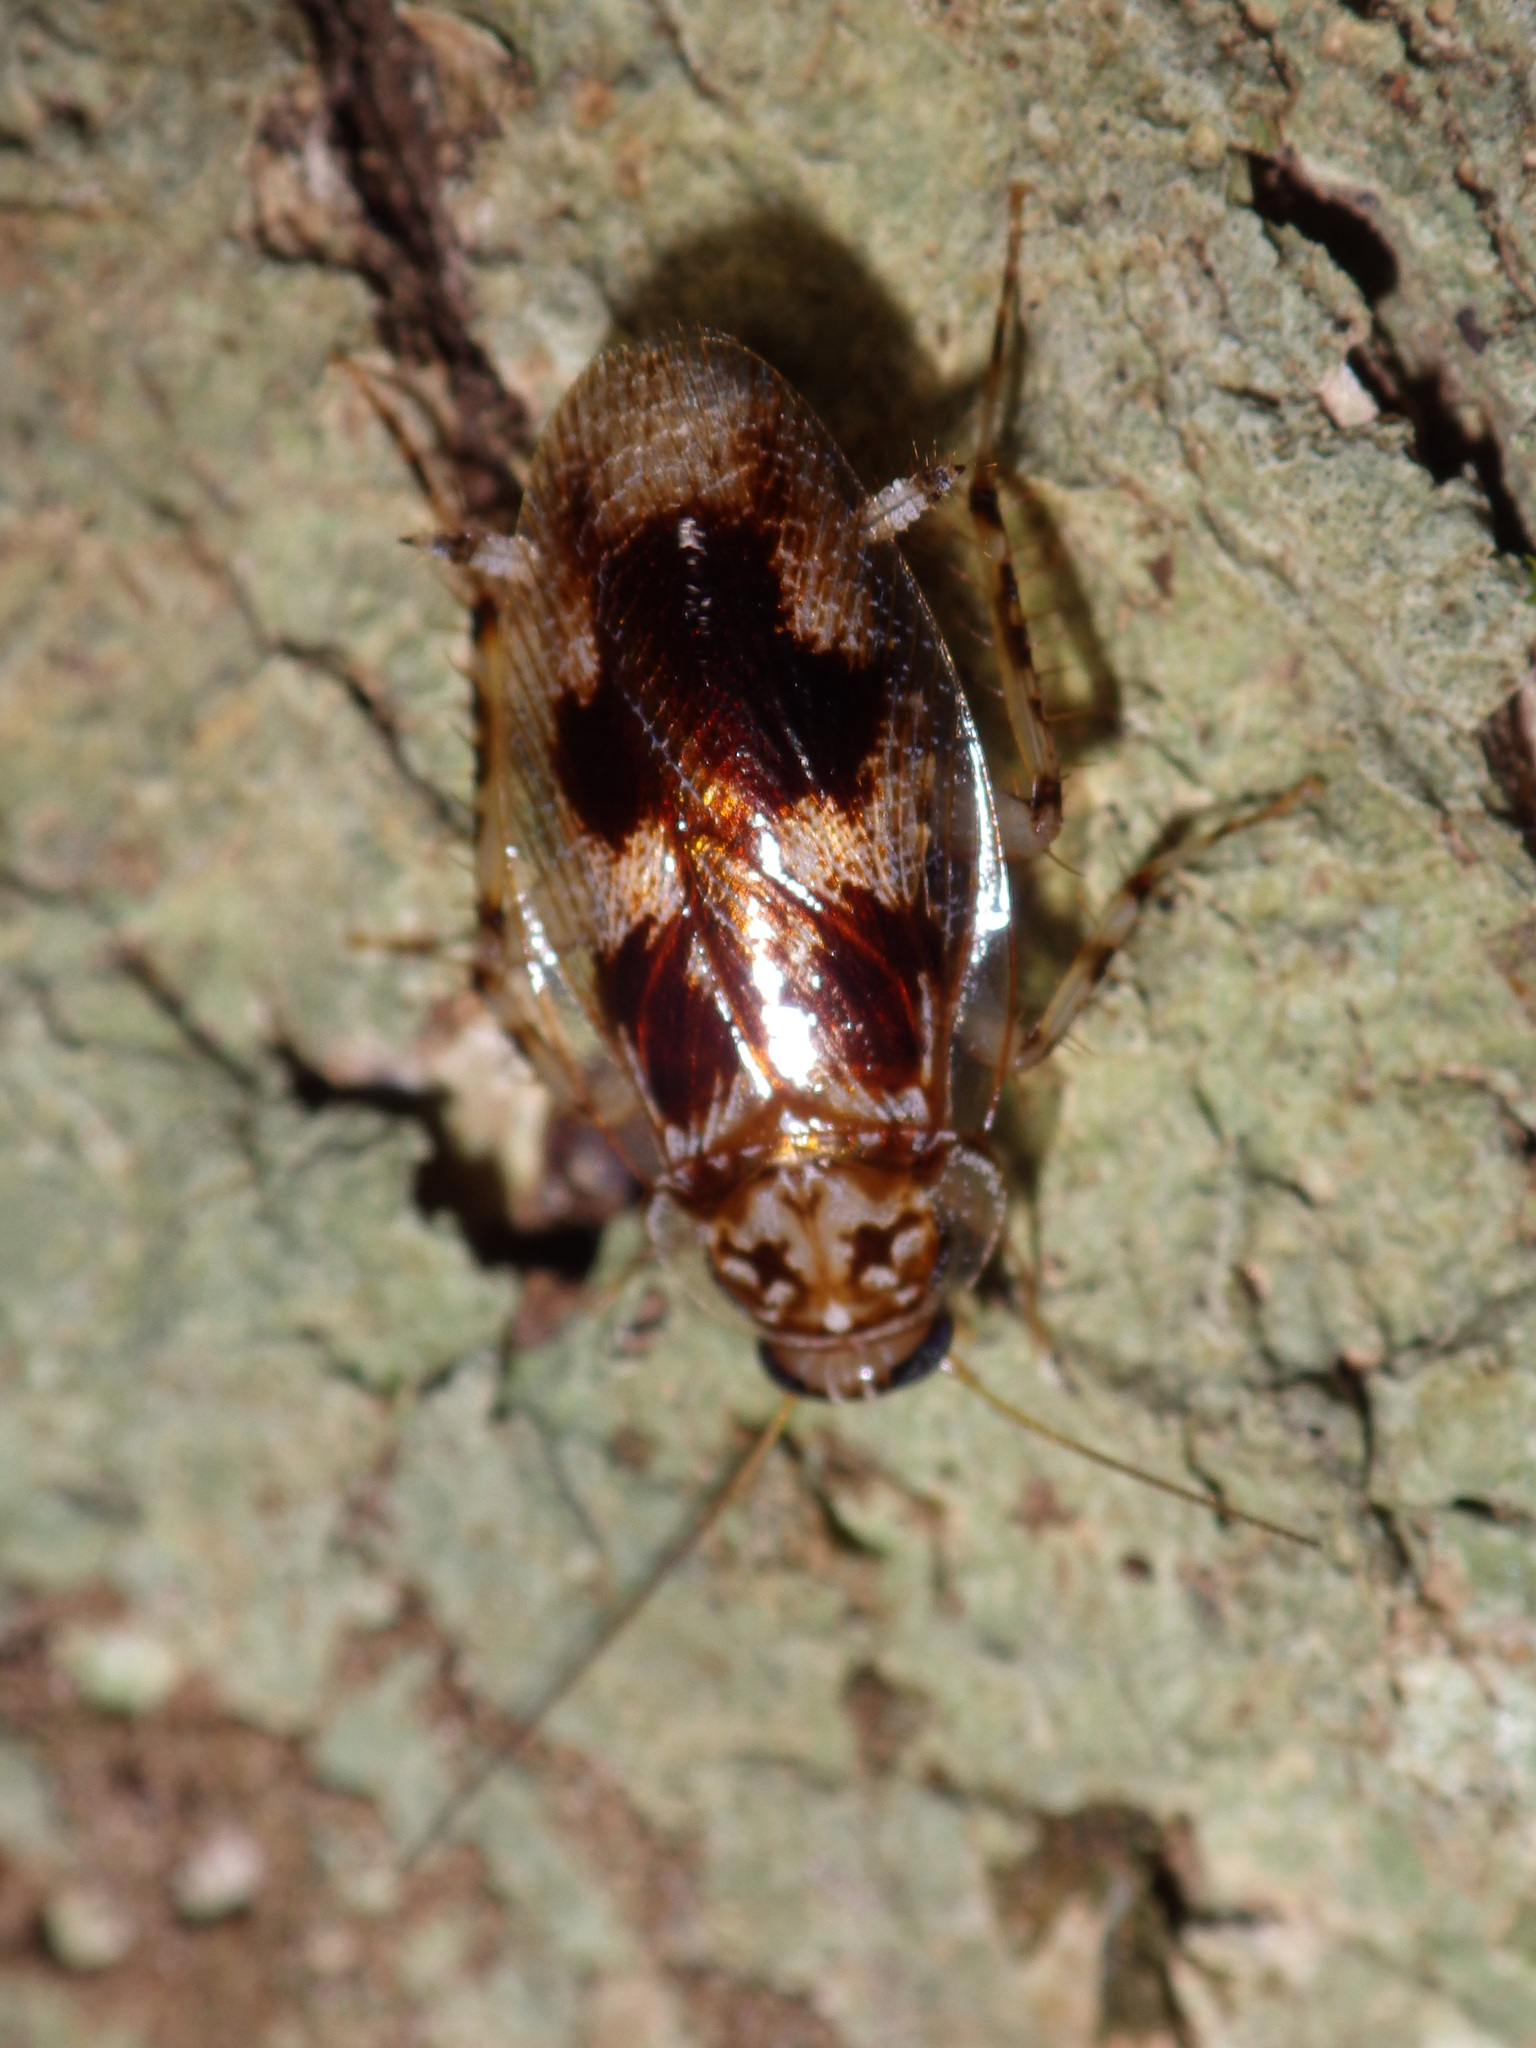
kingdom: Animalia
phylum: Arthropoda
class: Insecta
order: Blattodea
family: Ectobiidae
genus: Allacta
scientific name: Allacta australiensis
